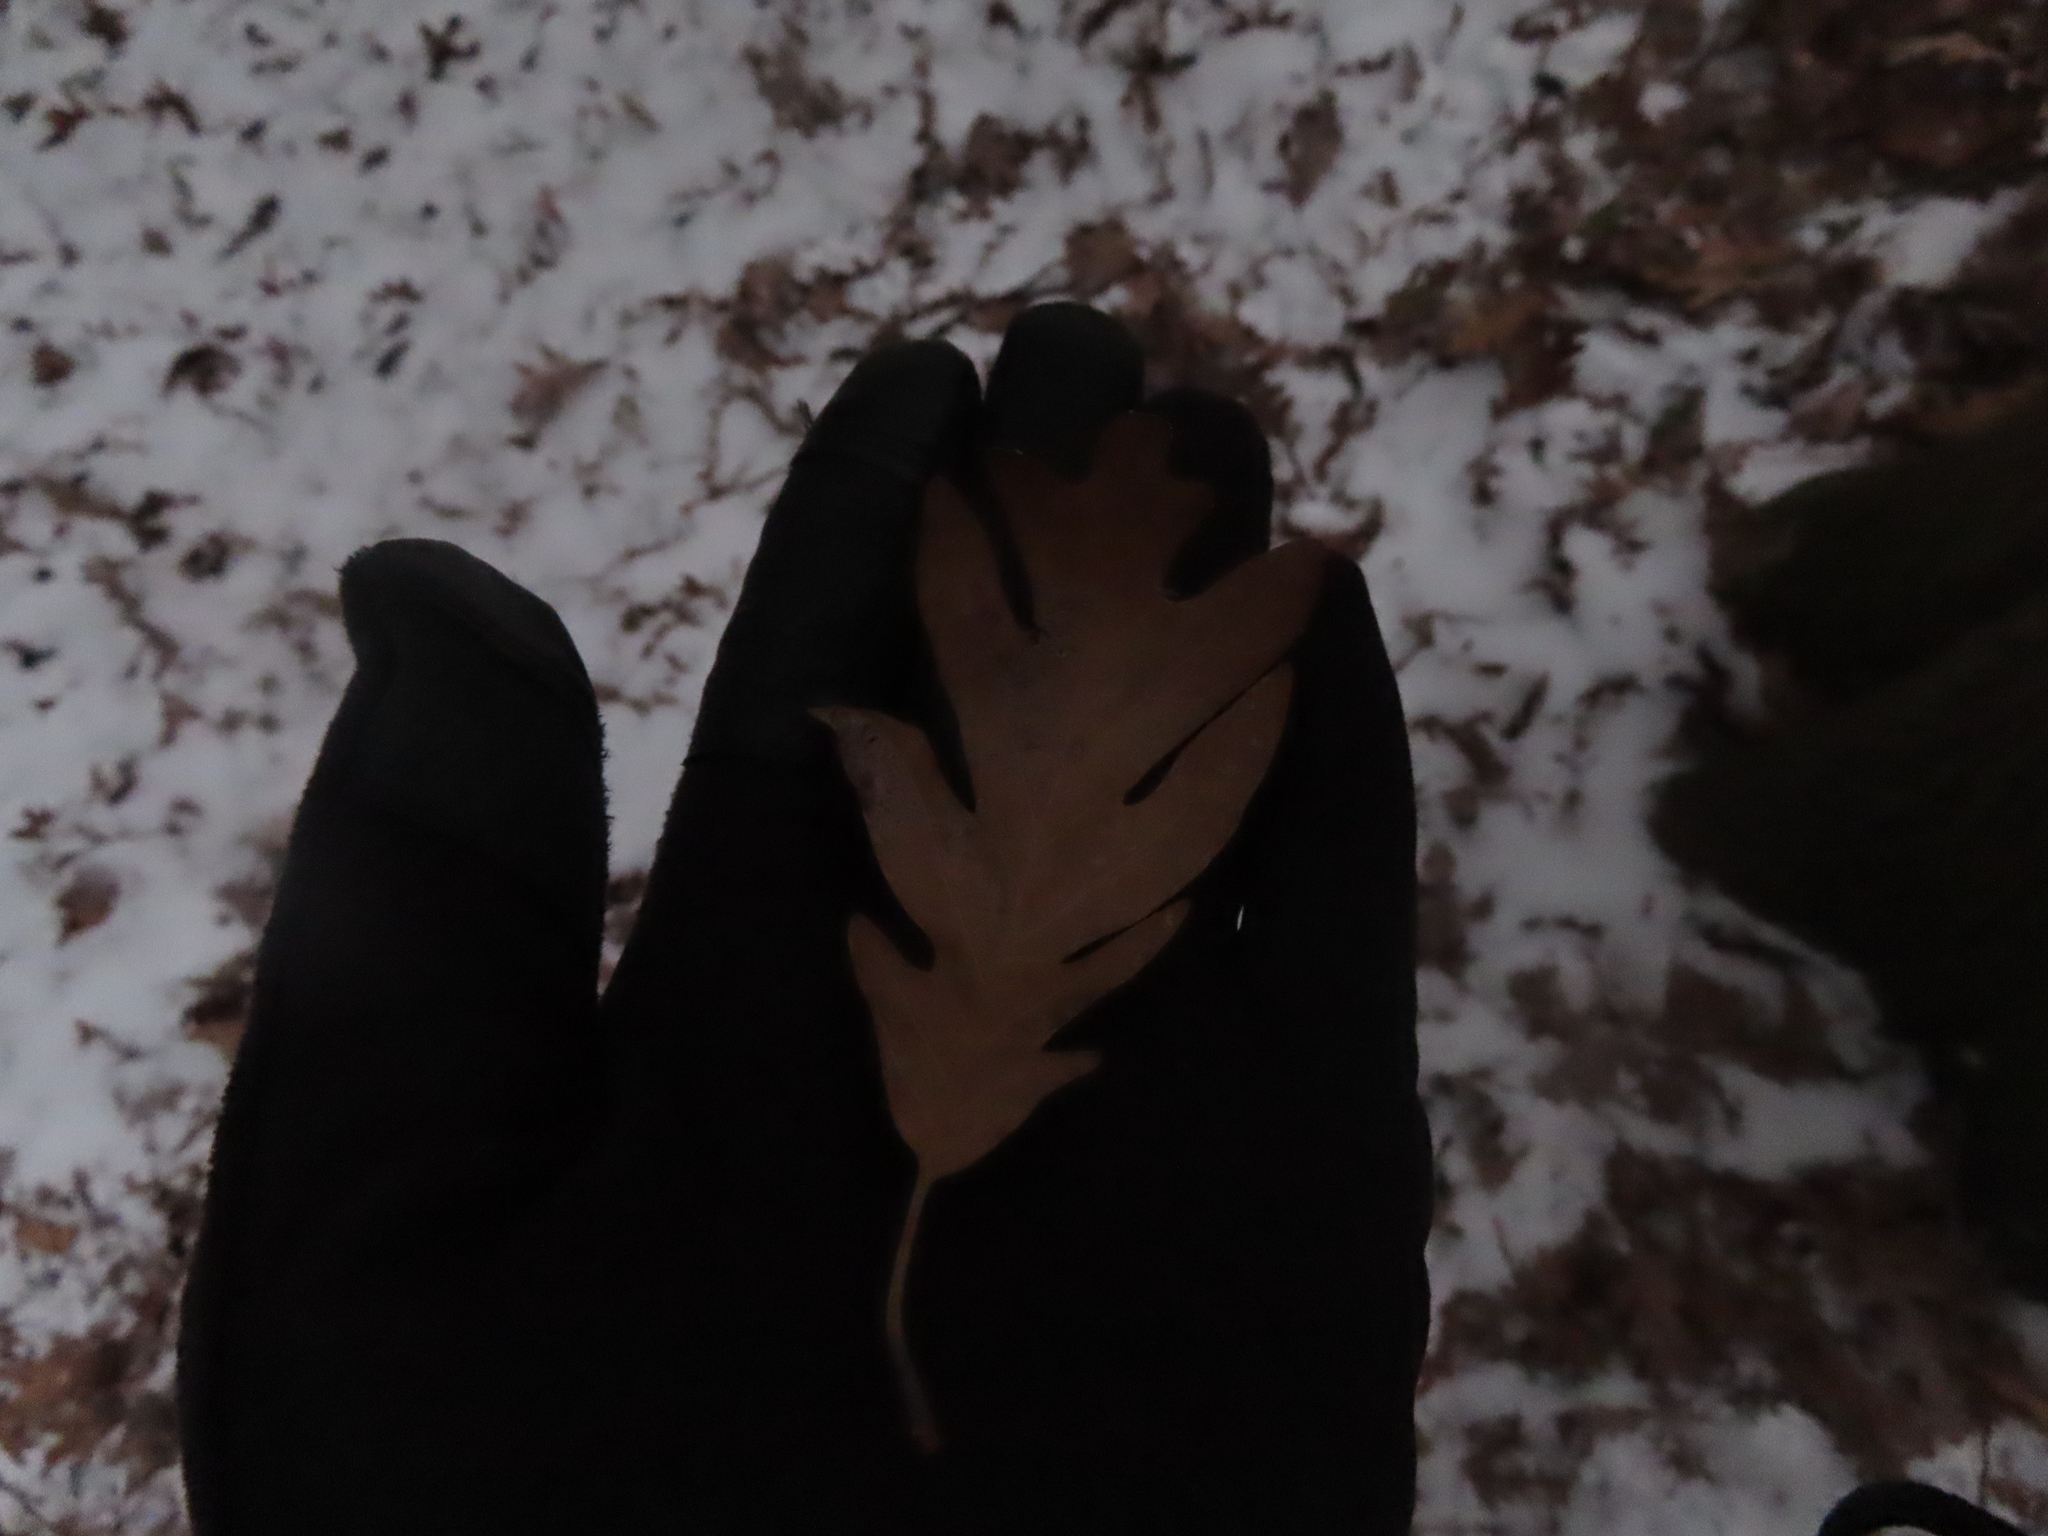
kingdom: Plantae
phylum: Tracheophyta
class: Magnoliopsida
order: Fagales
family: Fagaceae
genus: Quercus
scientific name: Quercus alba
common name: White oak
